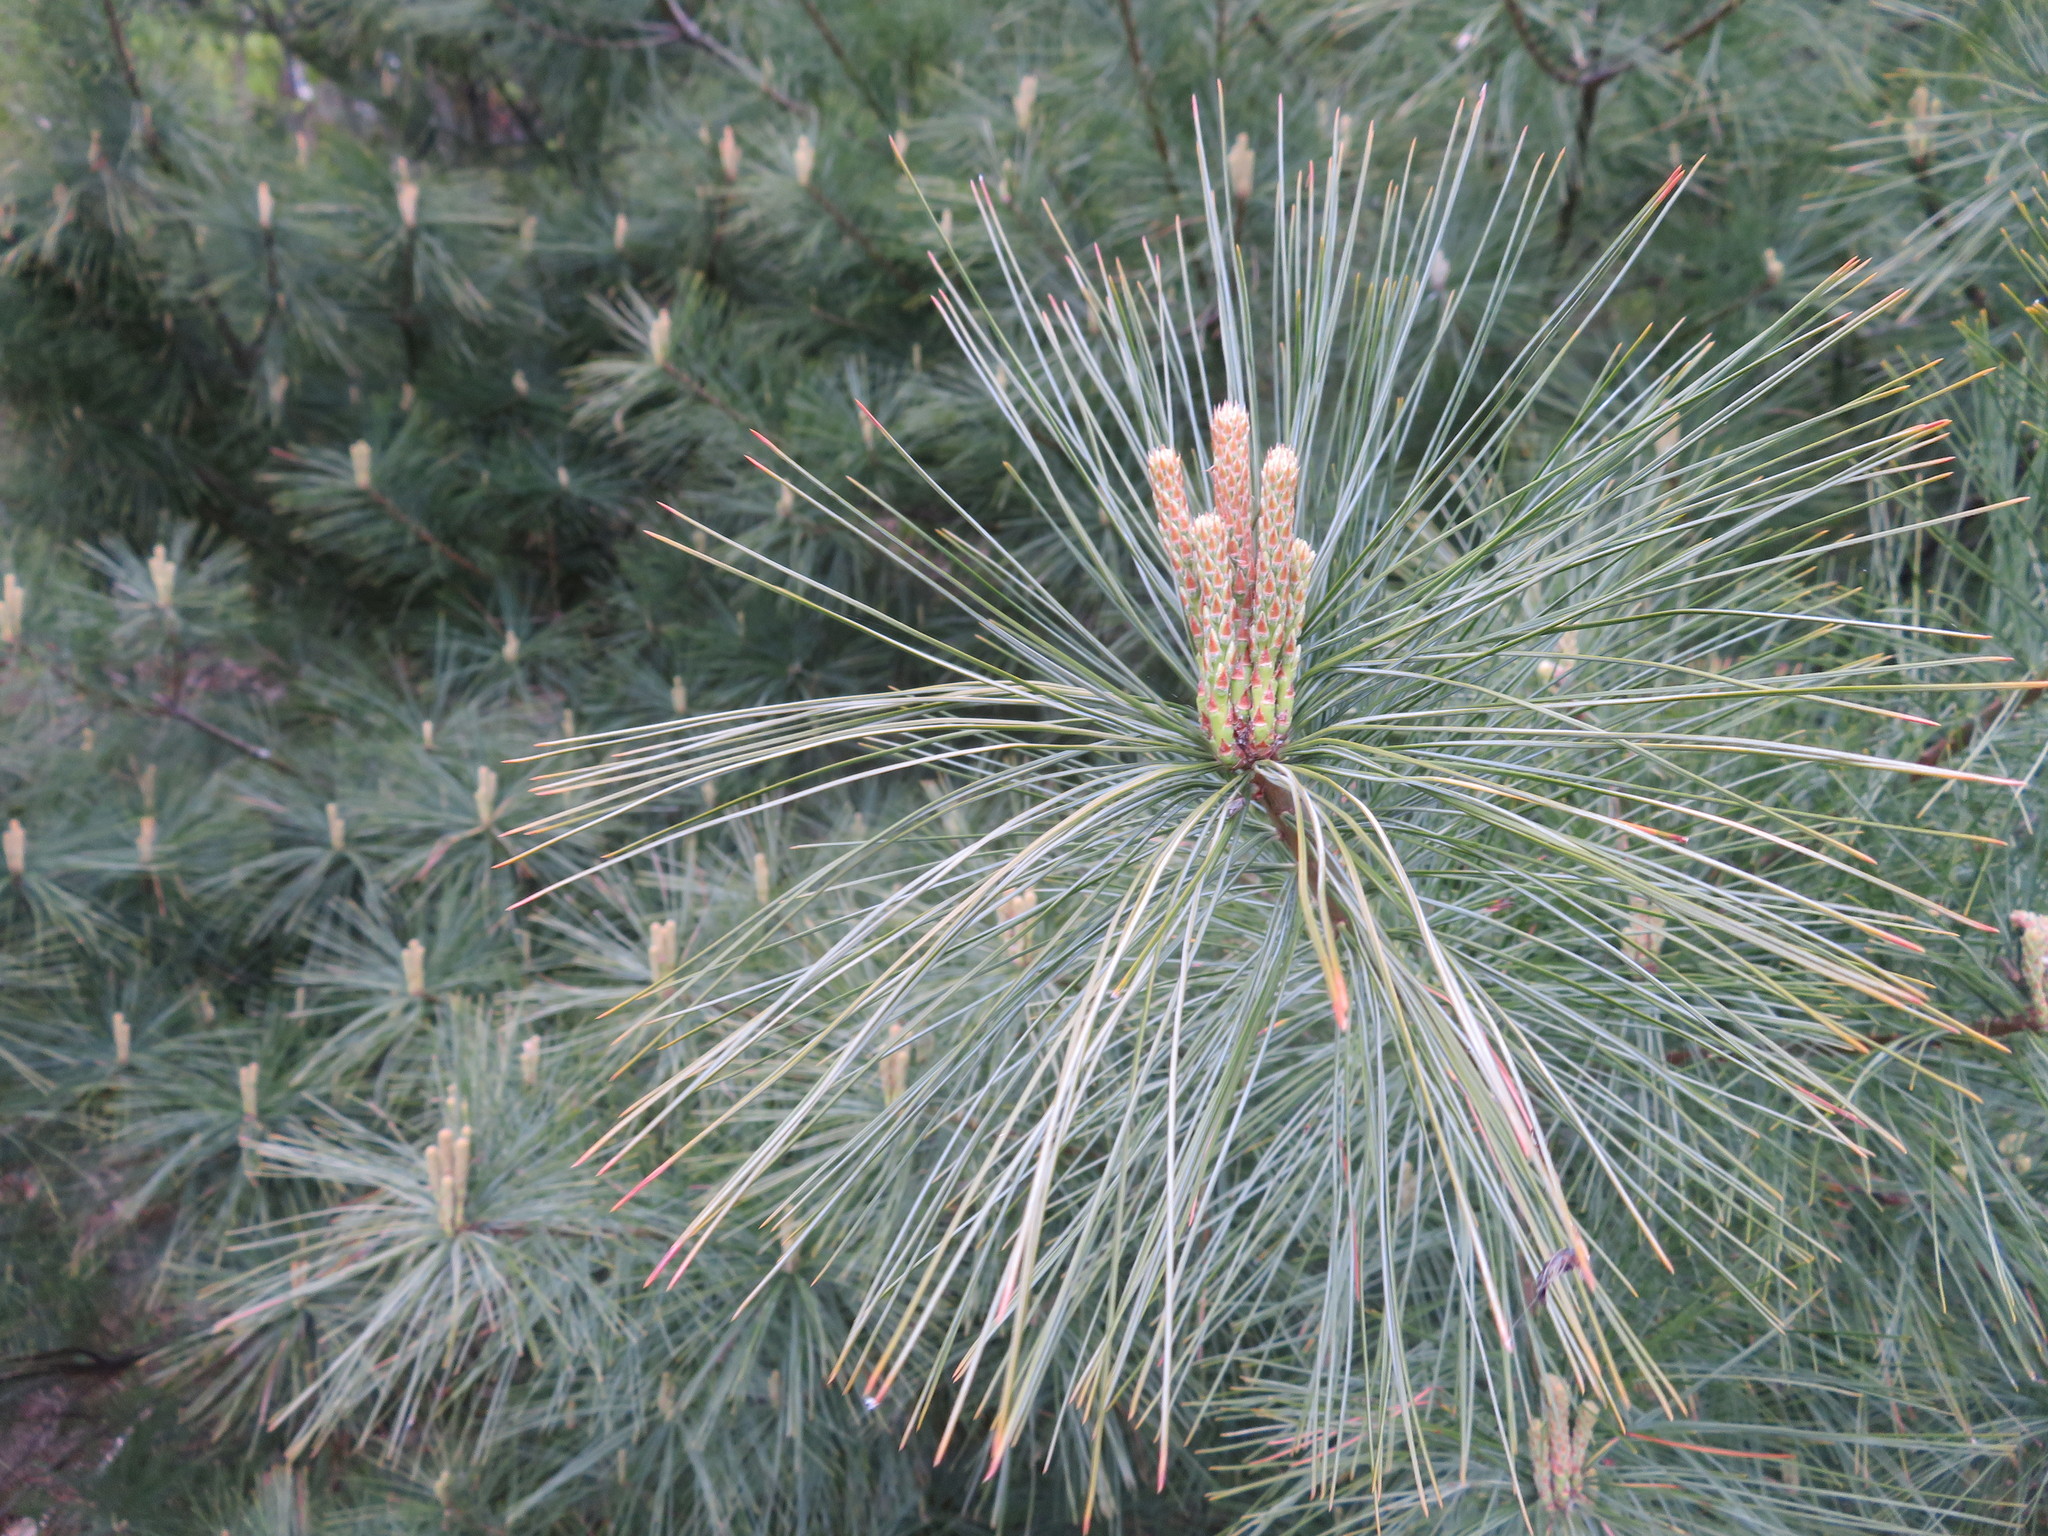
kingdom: Plantae
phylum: Tracheophyta
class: Pinopsida
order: Pinales
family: Pinaceae
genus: Pinus
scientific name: Pinus strobus
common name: Weymouth pine
